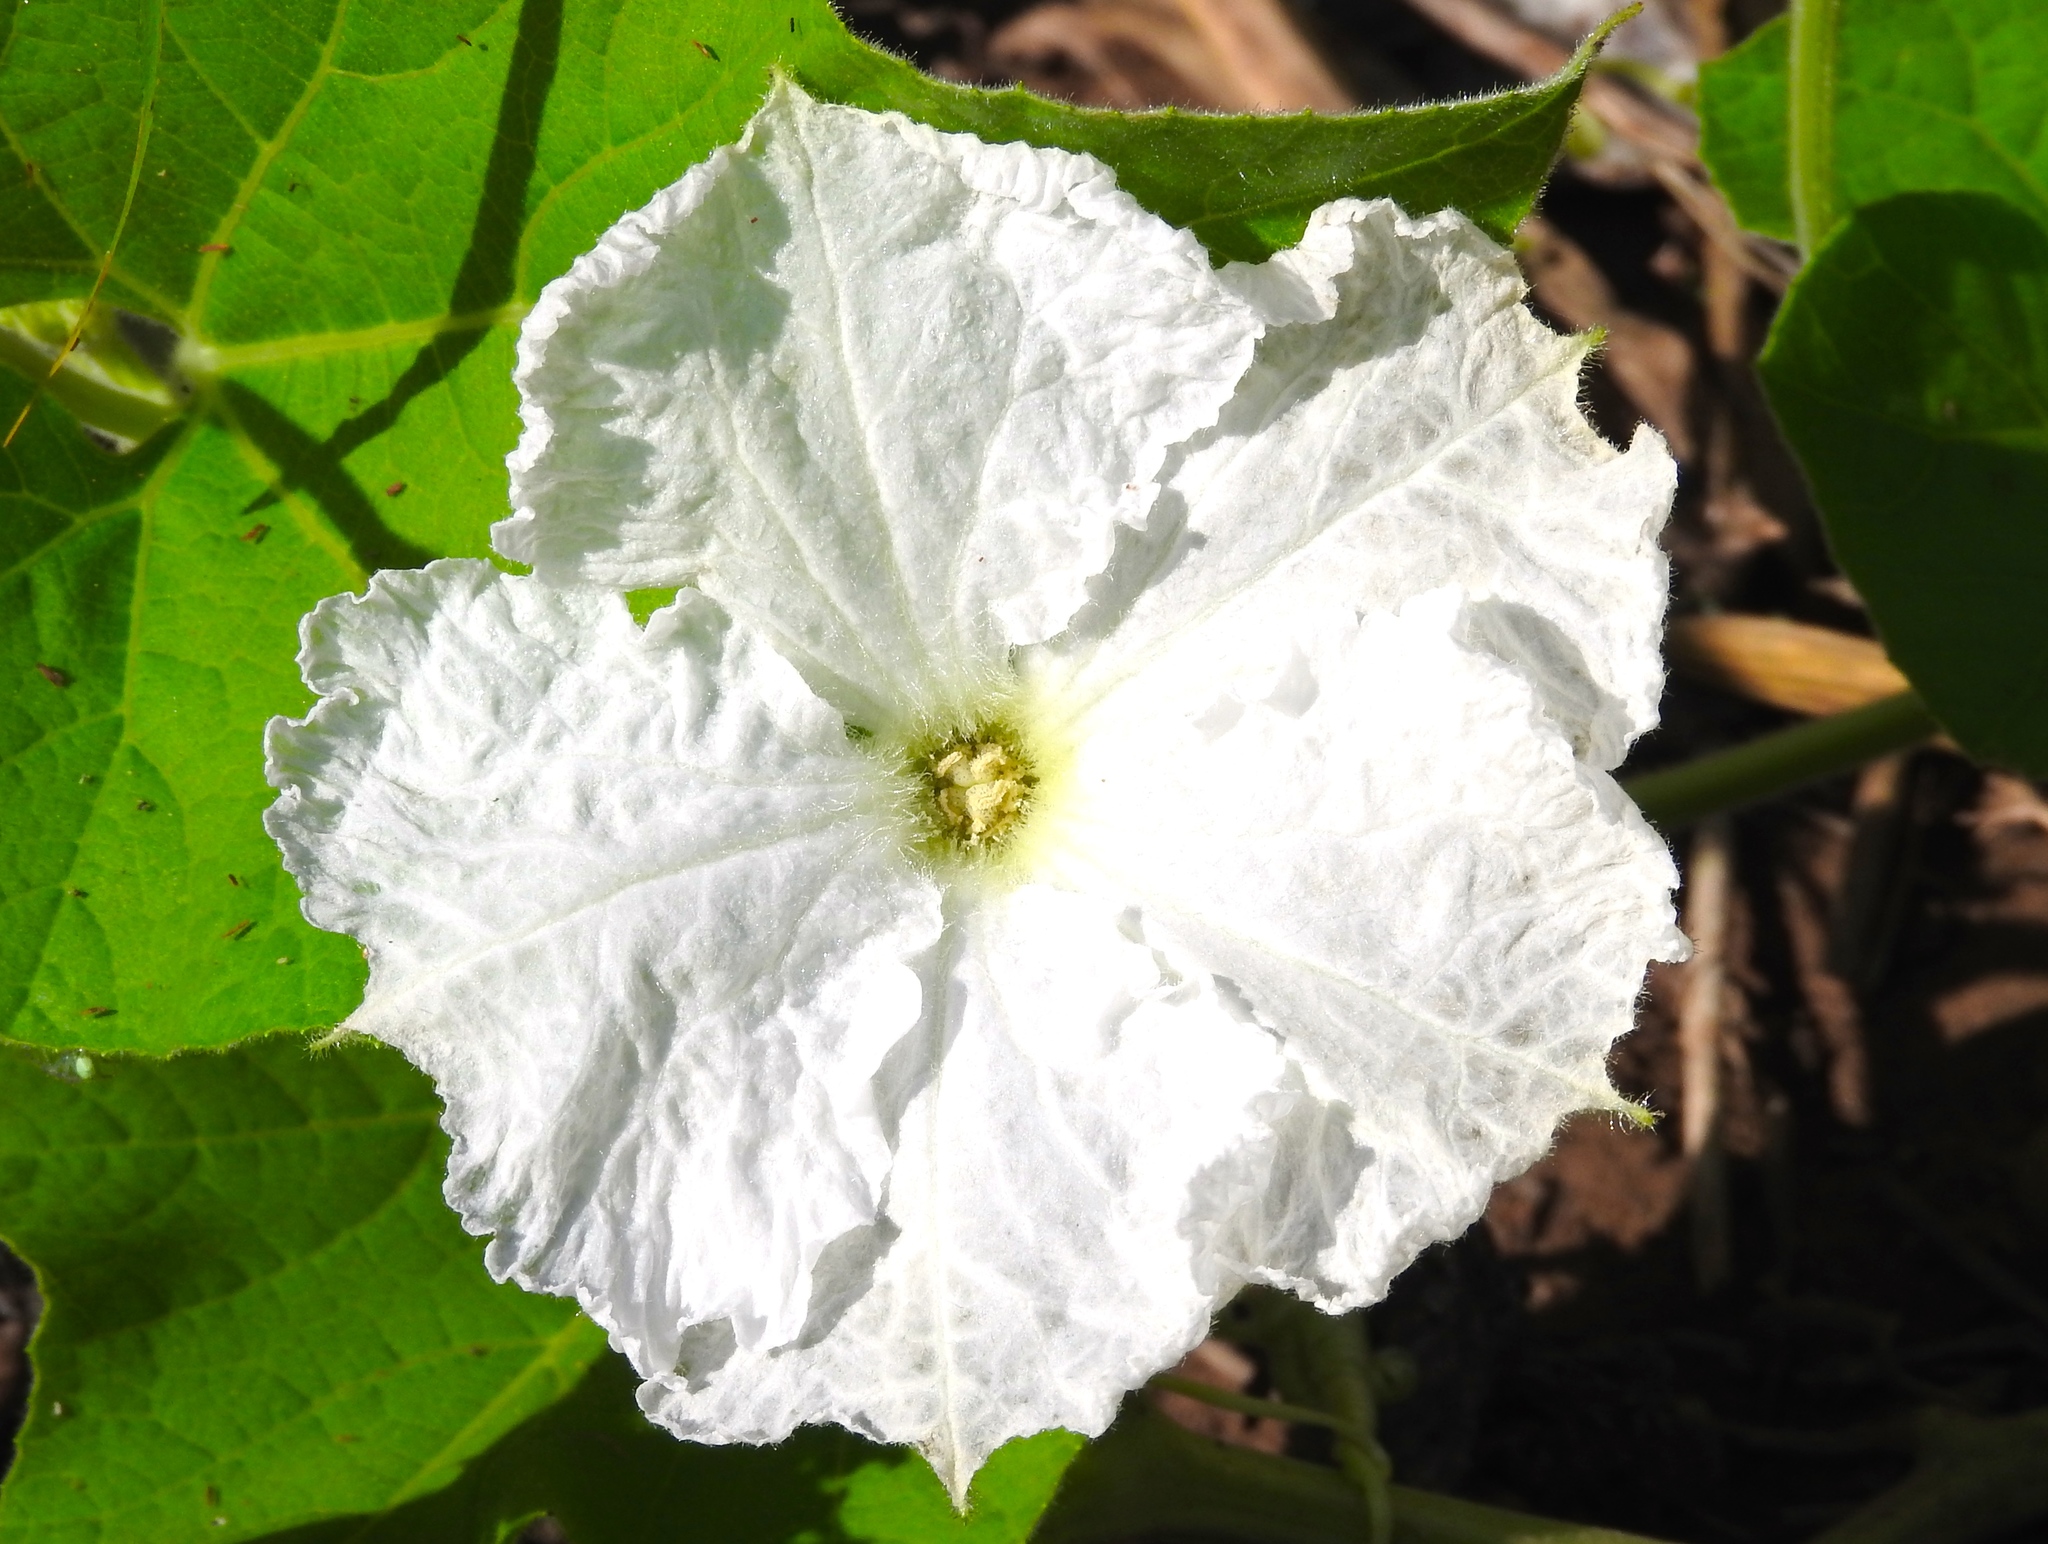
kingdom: Plantae
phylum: Tracheophyta
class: Magnoliopsida
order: Cucurbitales
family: Cucurbitaceae
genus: Luffa
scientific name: Luffa aegyptiaca
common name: Sponge gourd
